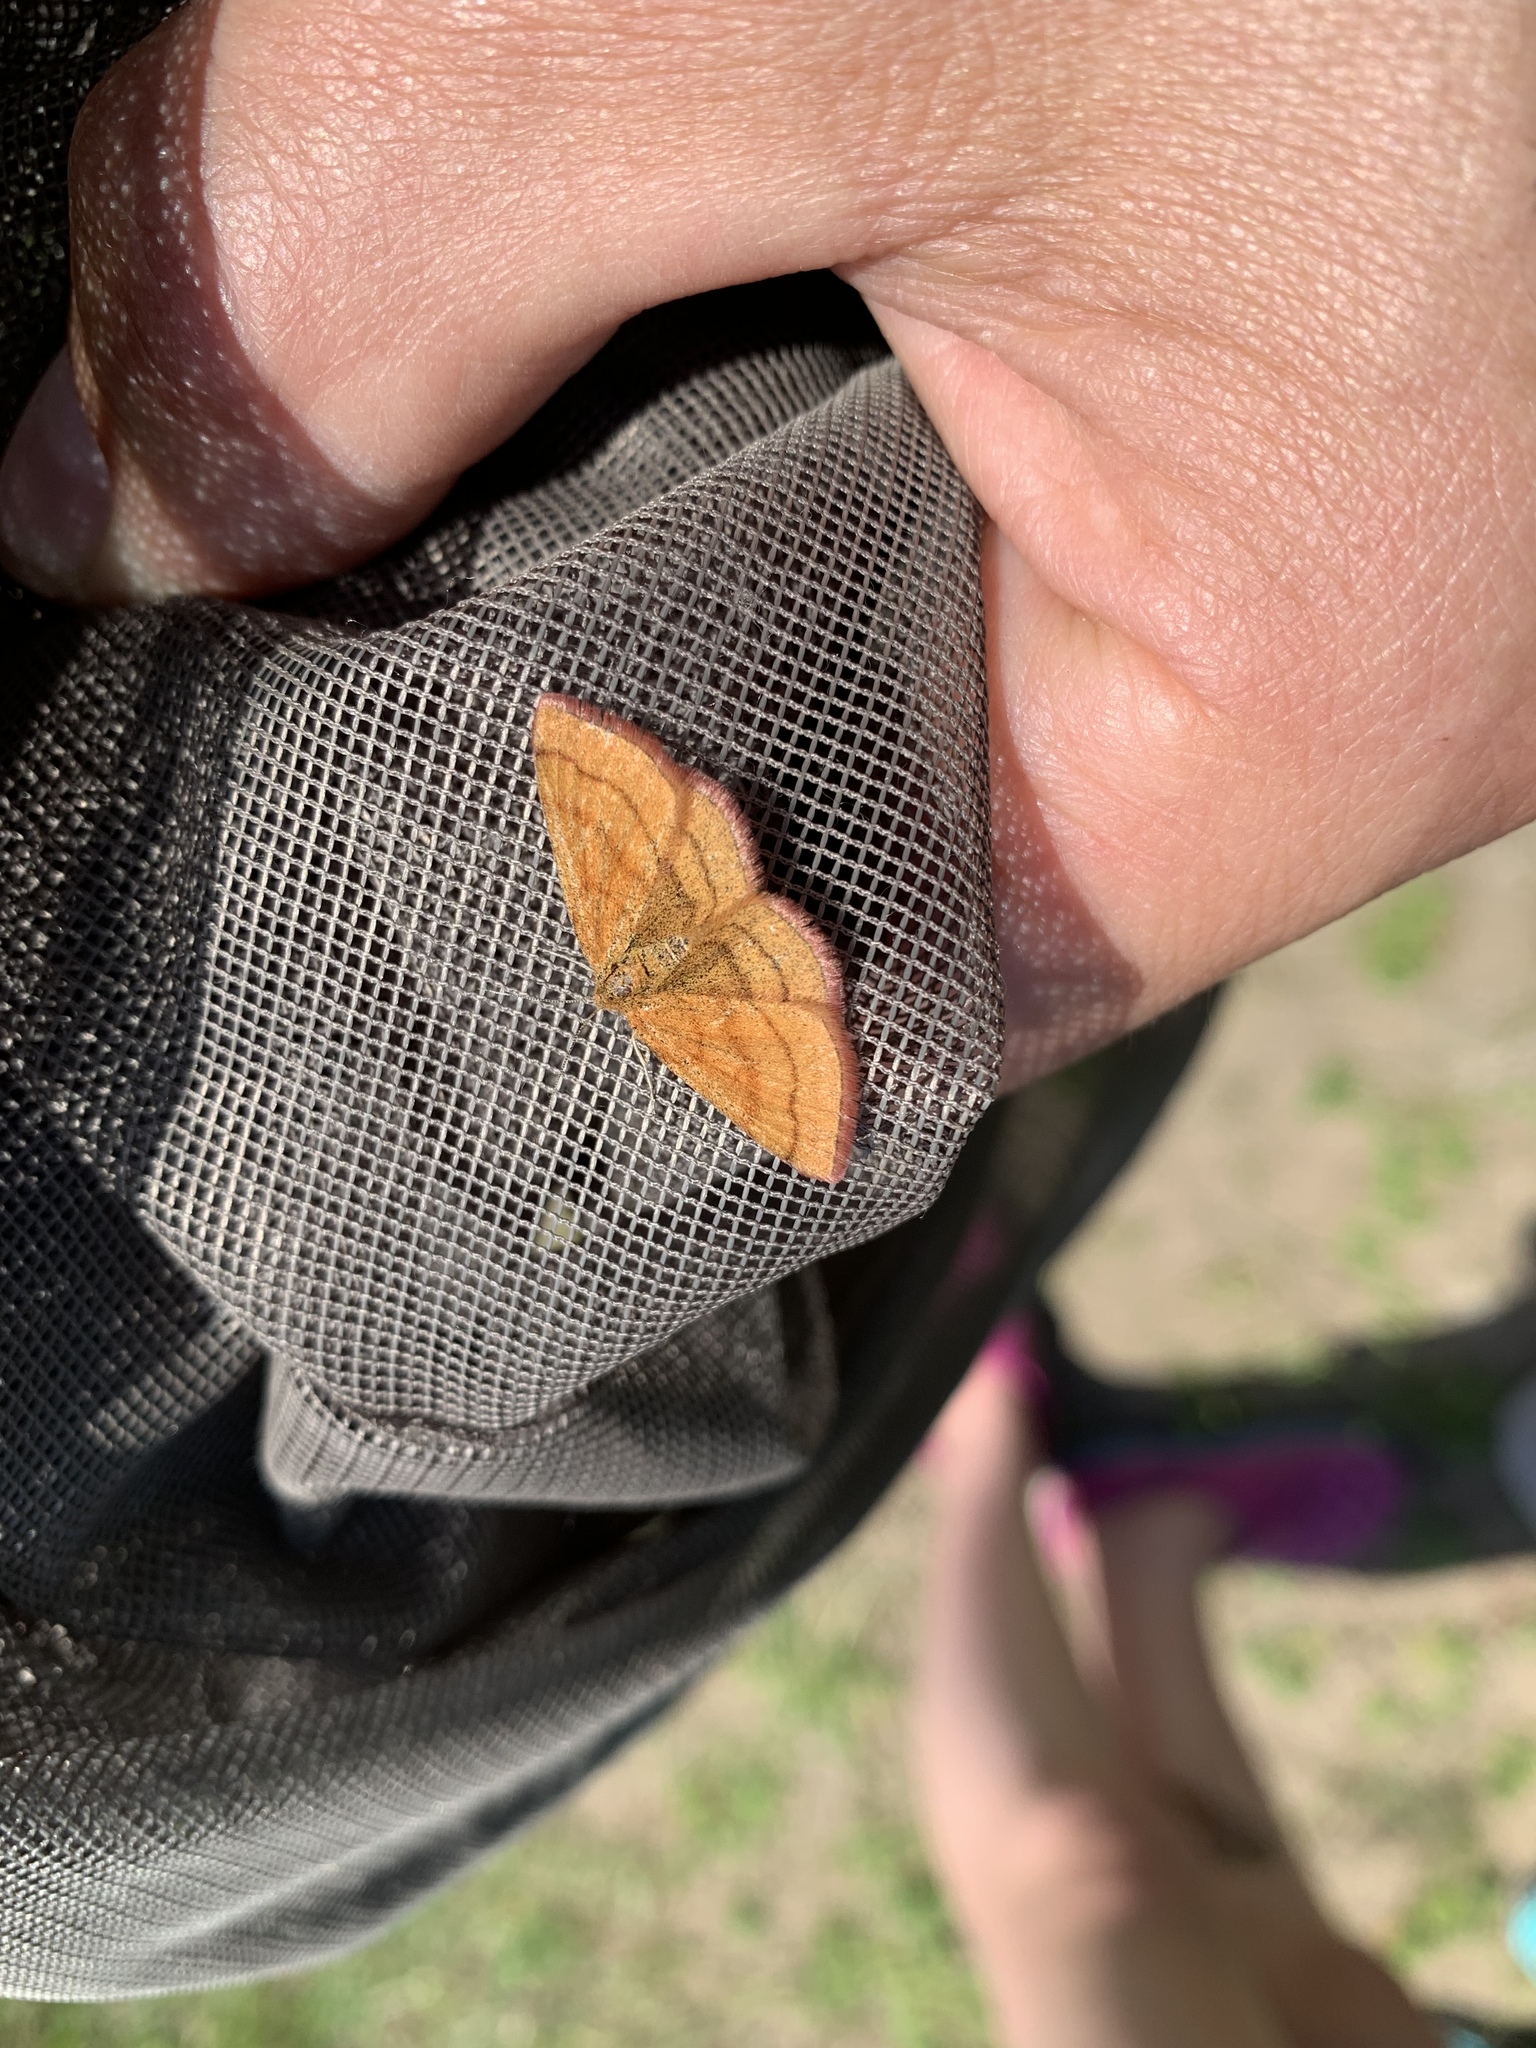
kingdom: Animalia
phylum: Arthropoda
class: Insecta
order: Lepidoptera
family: Geometridae
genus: Scopula
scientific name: Scopula sentinaria
